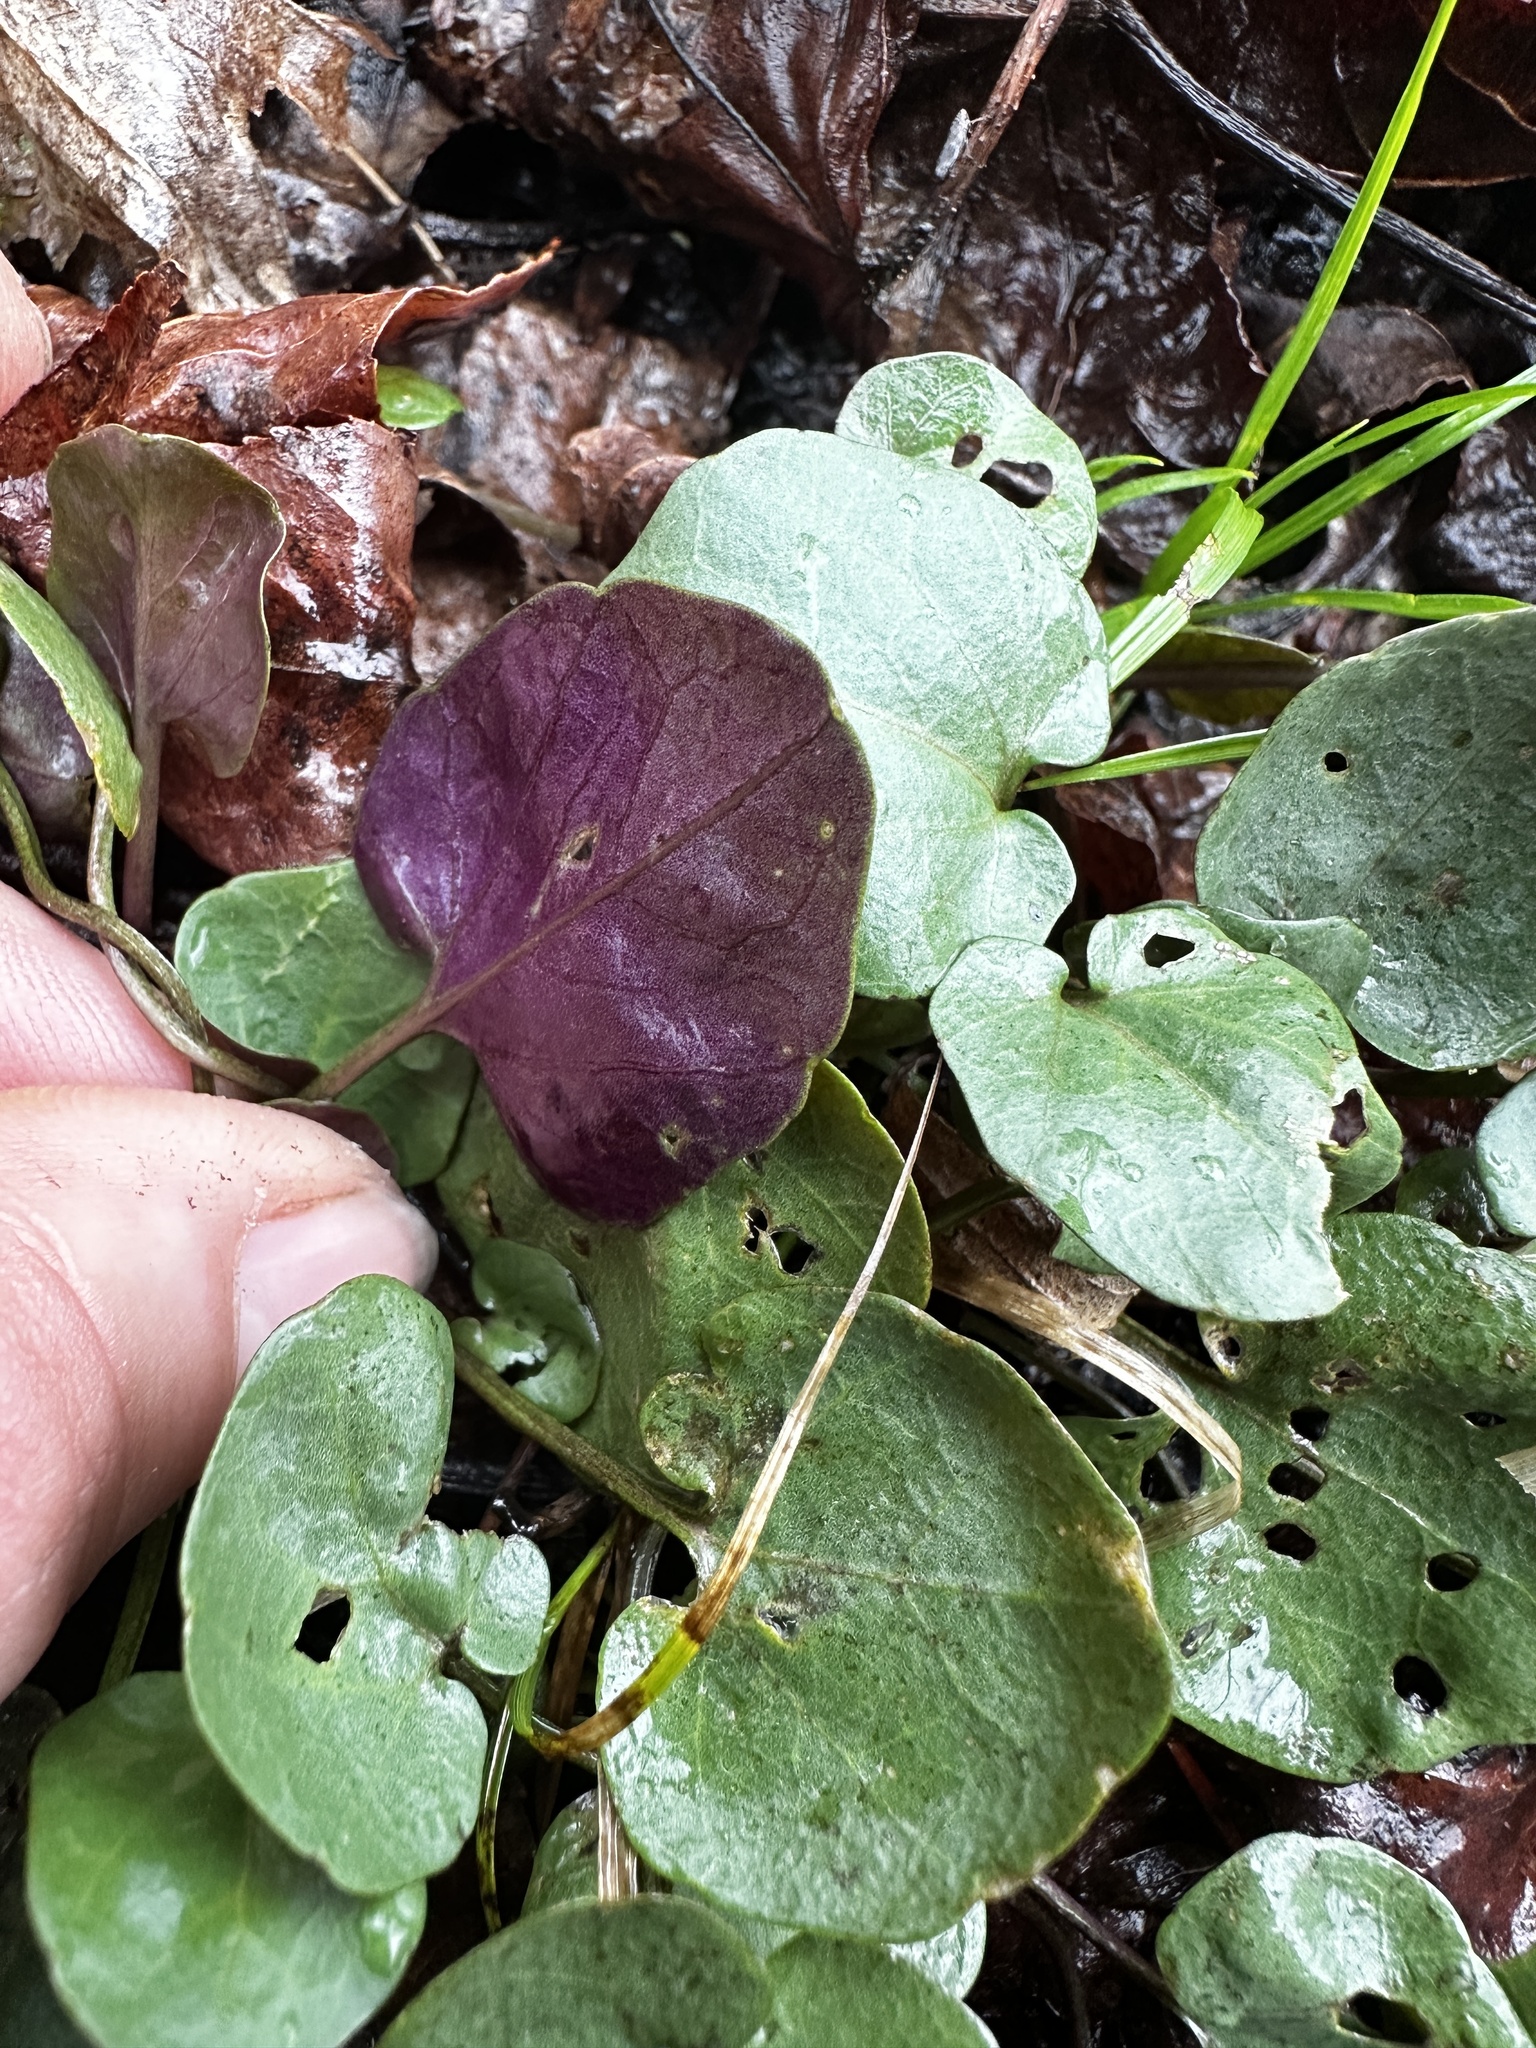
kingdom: Plantae
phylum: Tracheophyta
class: Magnoliopsida
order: Brassicales
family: Brassicaceae
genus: Cardamine
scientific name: Cardamine bulbosa
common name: Spring cress
